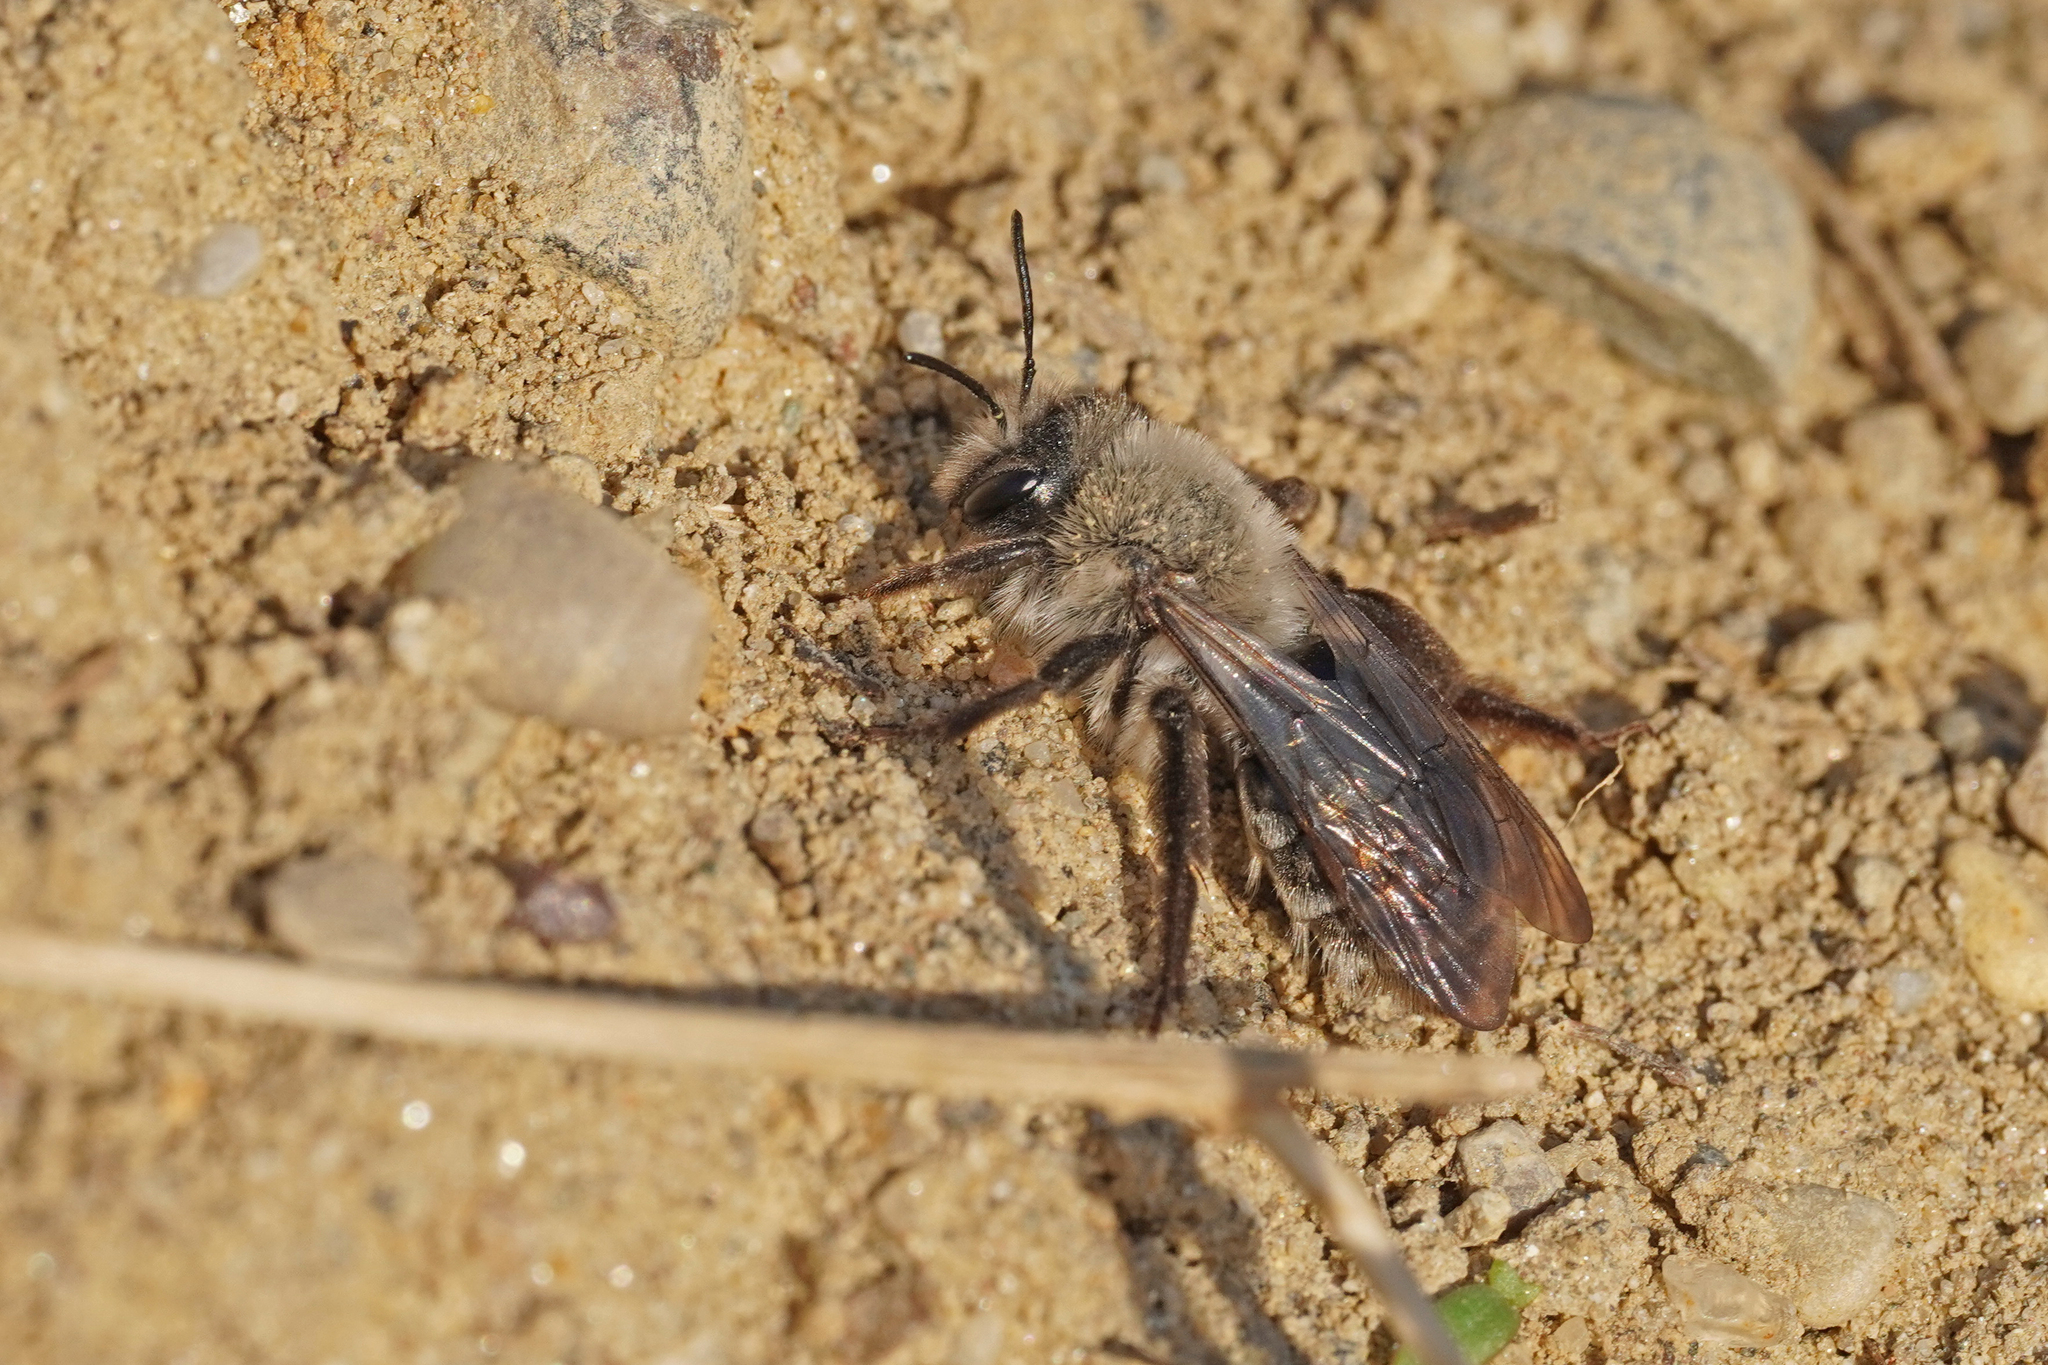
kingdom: Animalia
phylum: Arthropoda
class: Insecta
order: Hymenoptera
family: Andrenidae
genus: Andrena
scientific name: Andrena vaga
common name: Grey-backed mining bee
